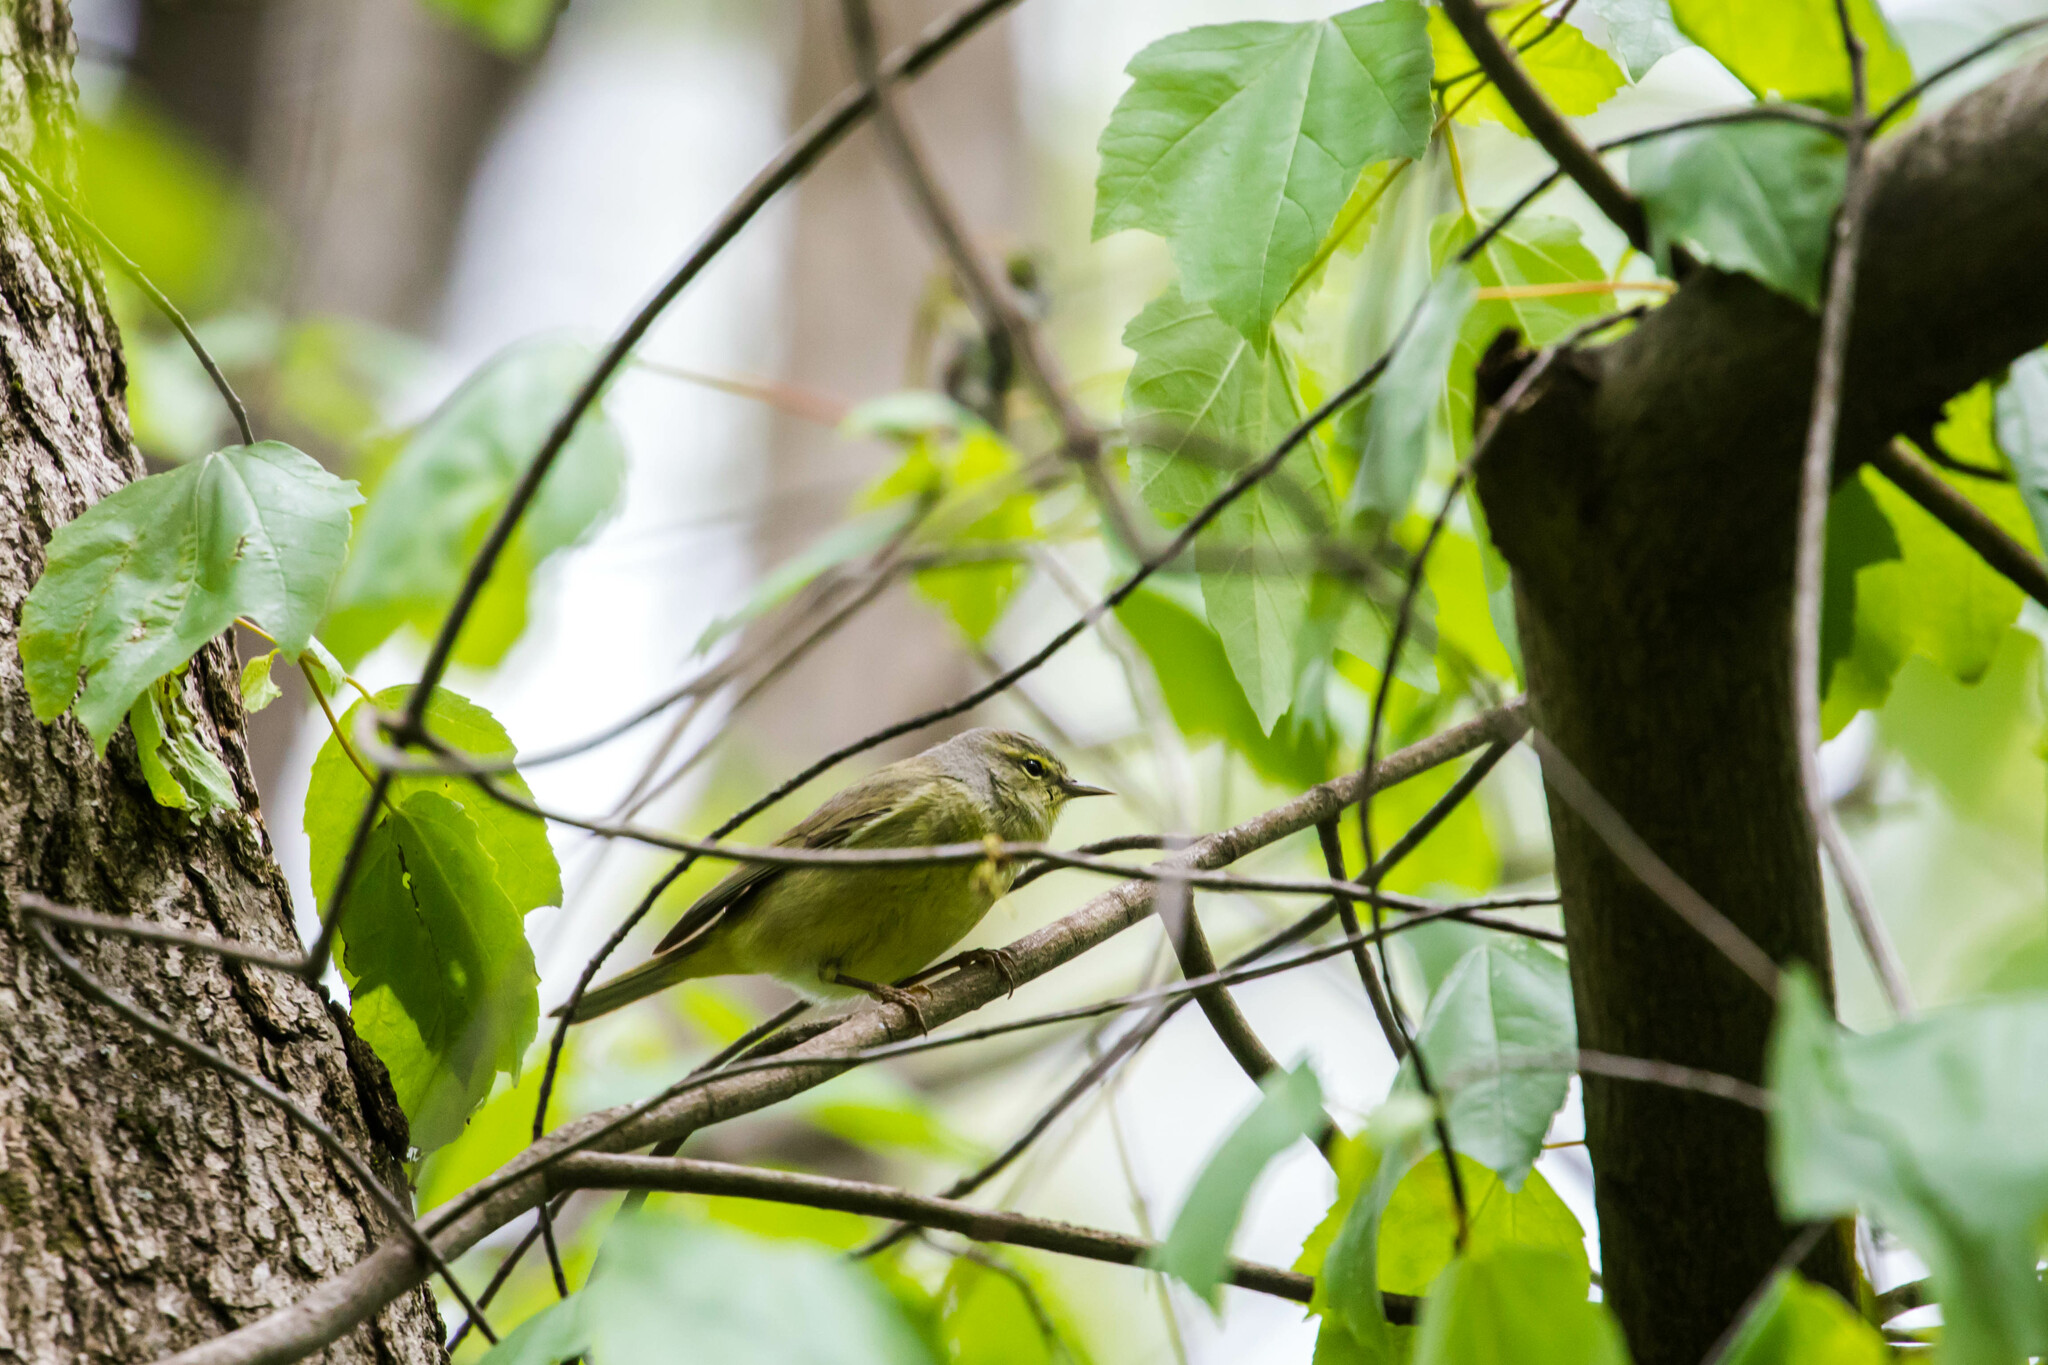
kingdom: Animalia
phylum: Chordata
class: Aves
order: Passeriformes
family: Parulidae
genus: Leiothlypis
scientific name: Leiothlypis peregrina
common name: Tennessee warbler
